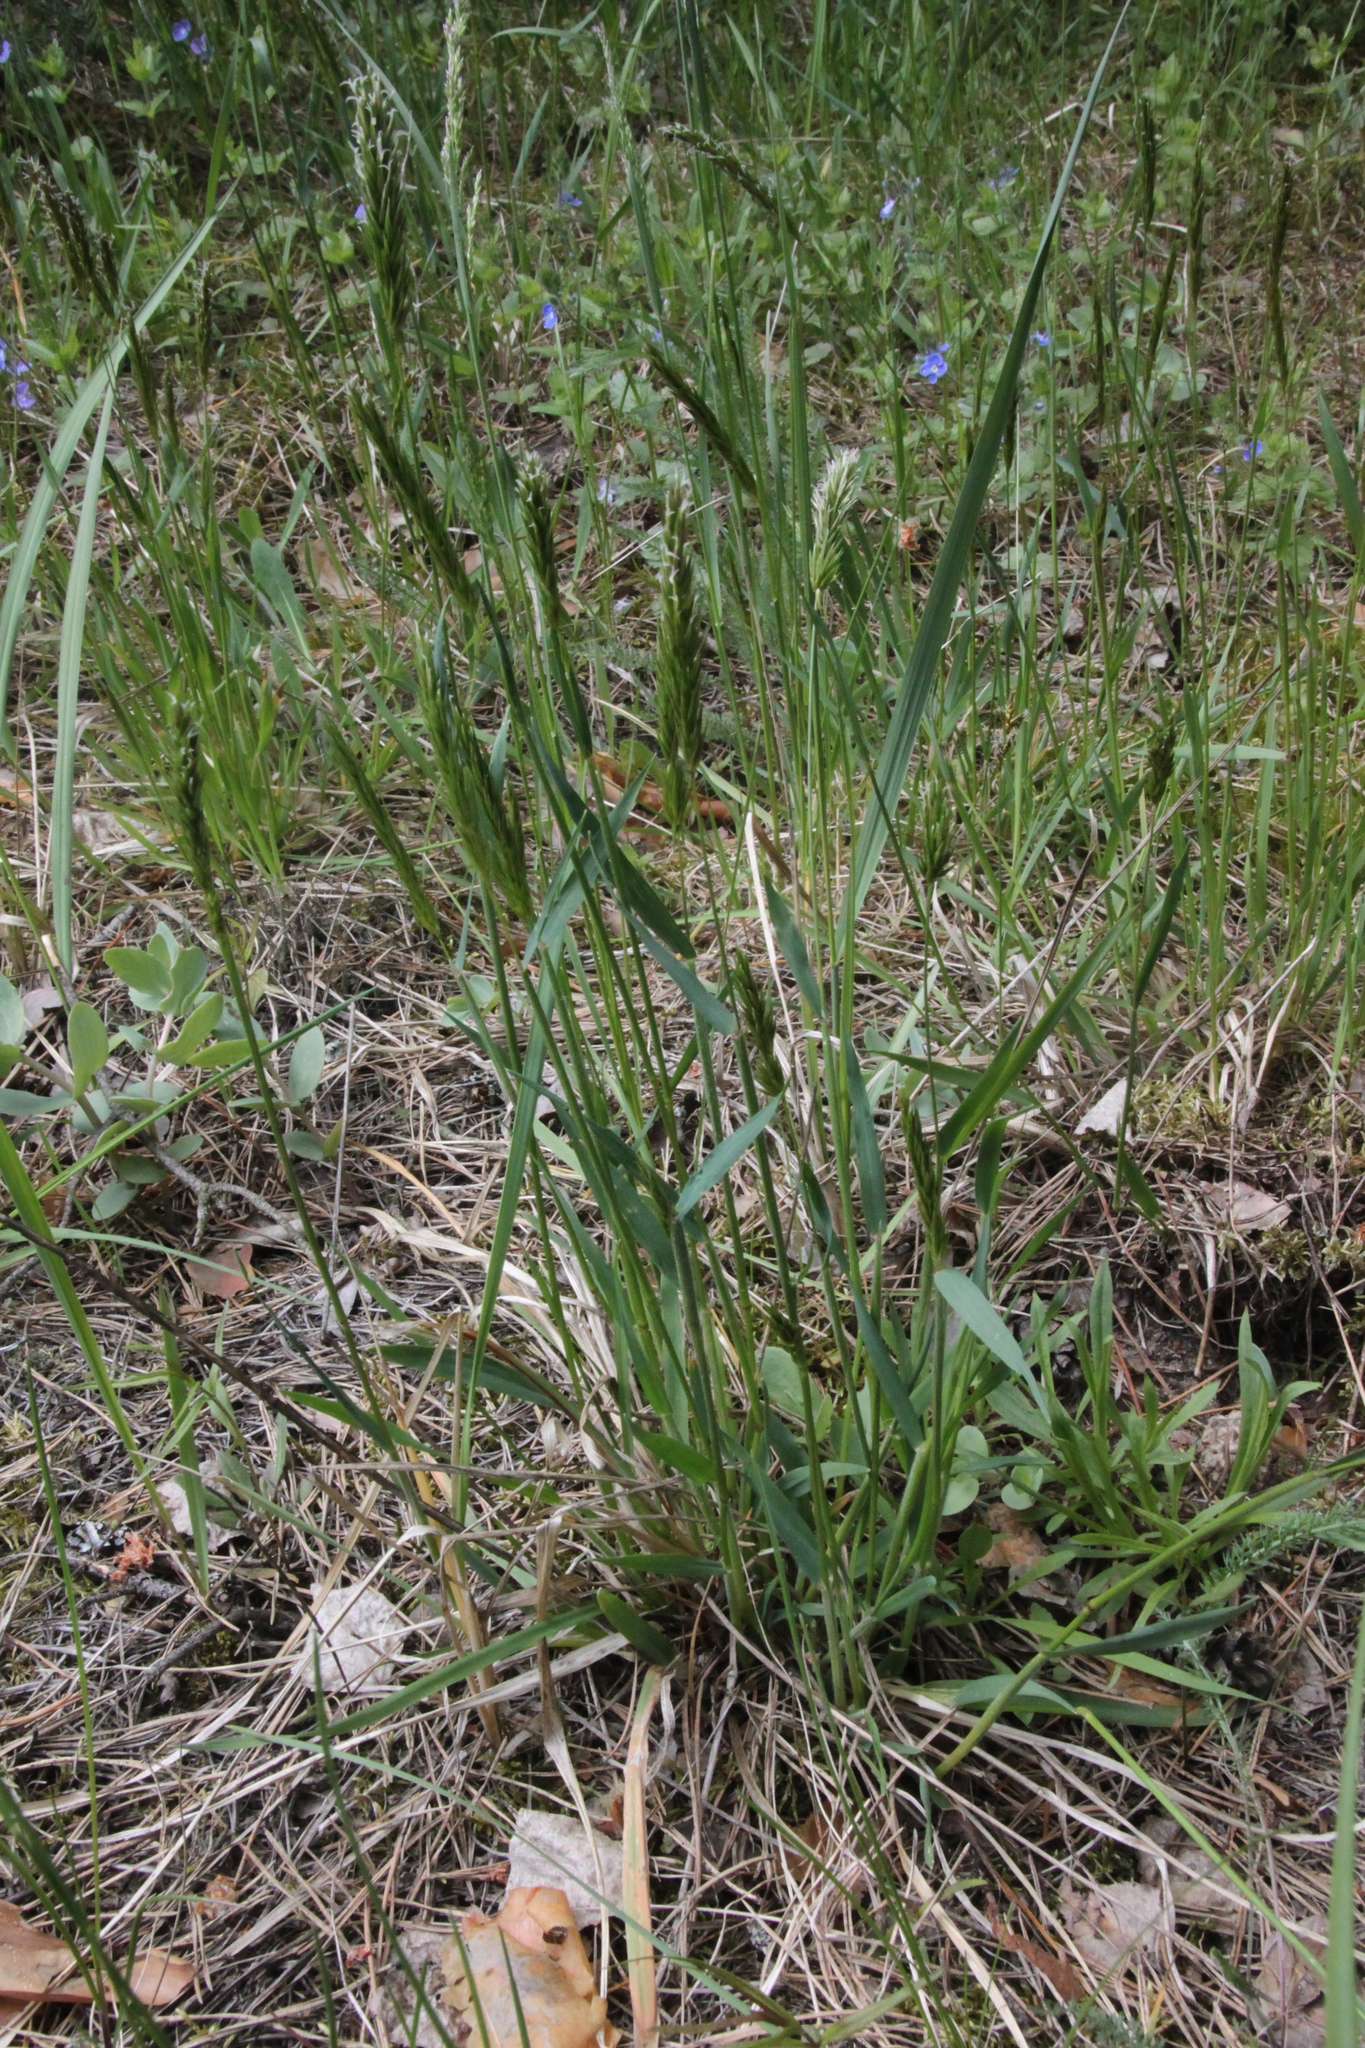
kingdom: Plantae
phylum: Tracheophyta
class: Liliopsida
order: Poales
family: Poaceae
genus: Anthoxanthum
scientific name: Anthoxanthum odoratum
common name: Sweet vernalgrass
